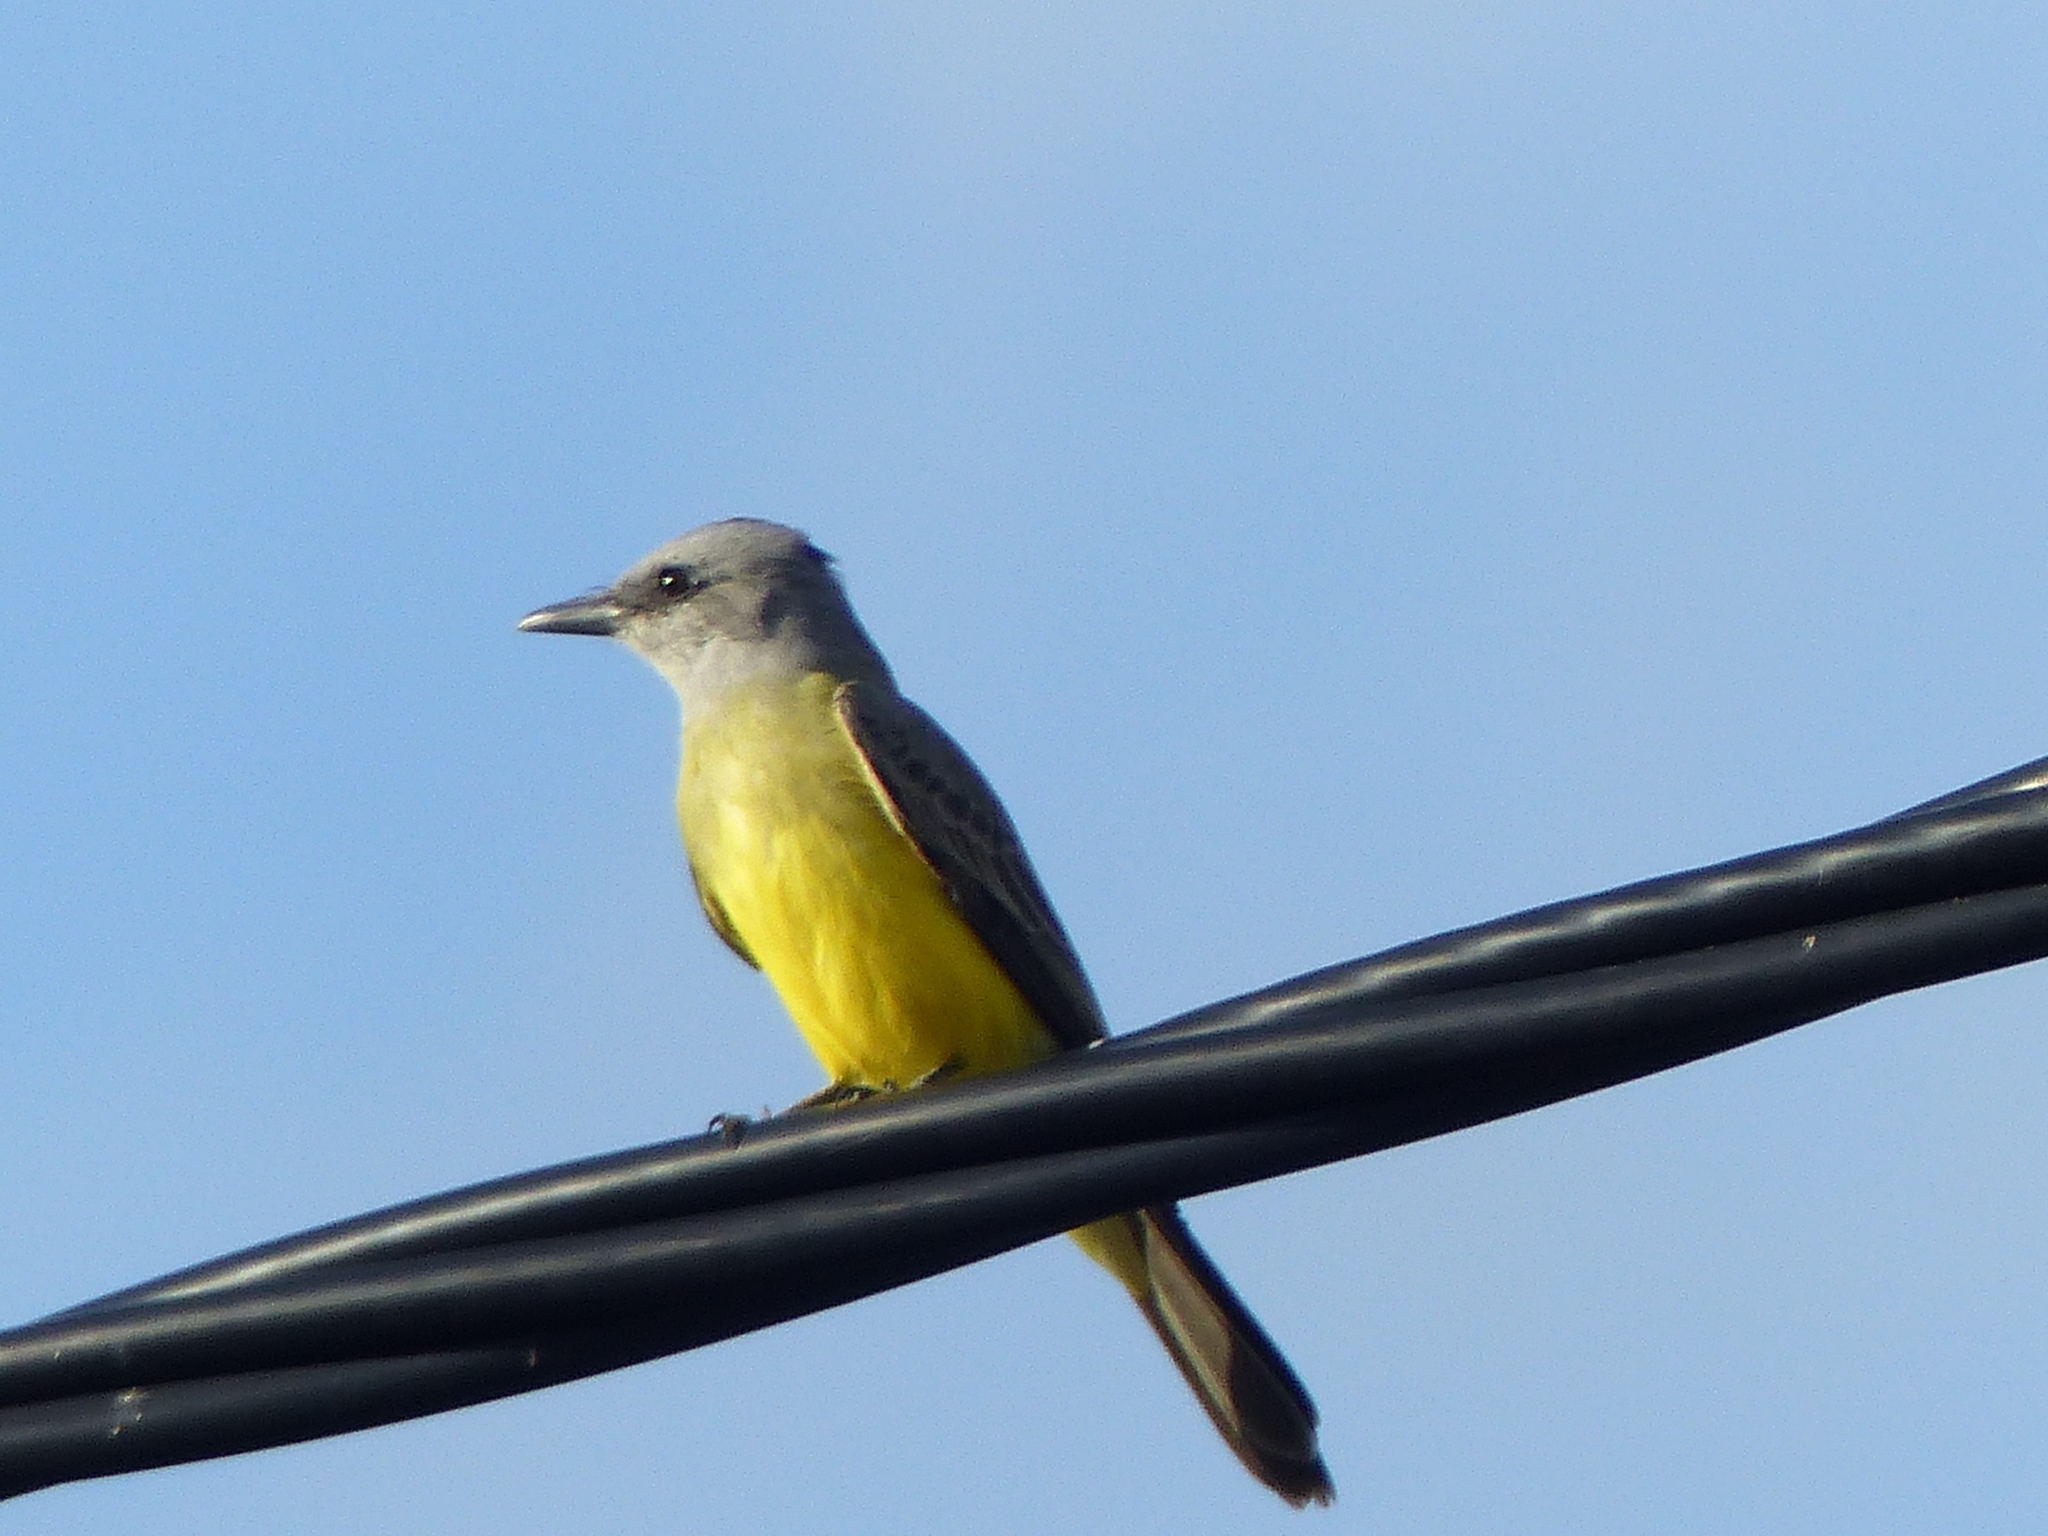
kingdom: Animalia
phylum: Chordata
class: Aves
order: Passeriformes
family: Tyrannidae
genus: Tyrannus
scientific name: Tyrannus melancholicus
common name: Tropical kingbird
